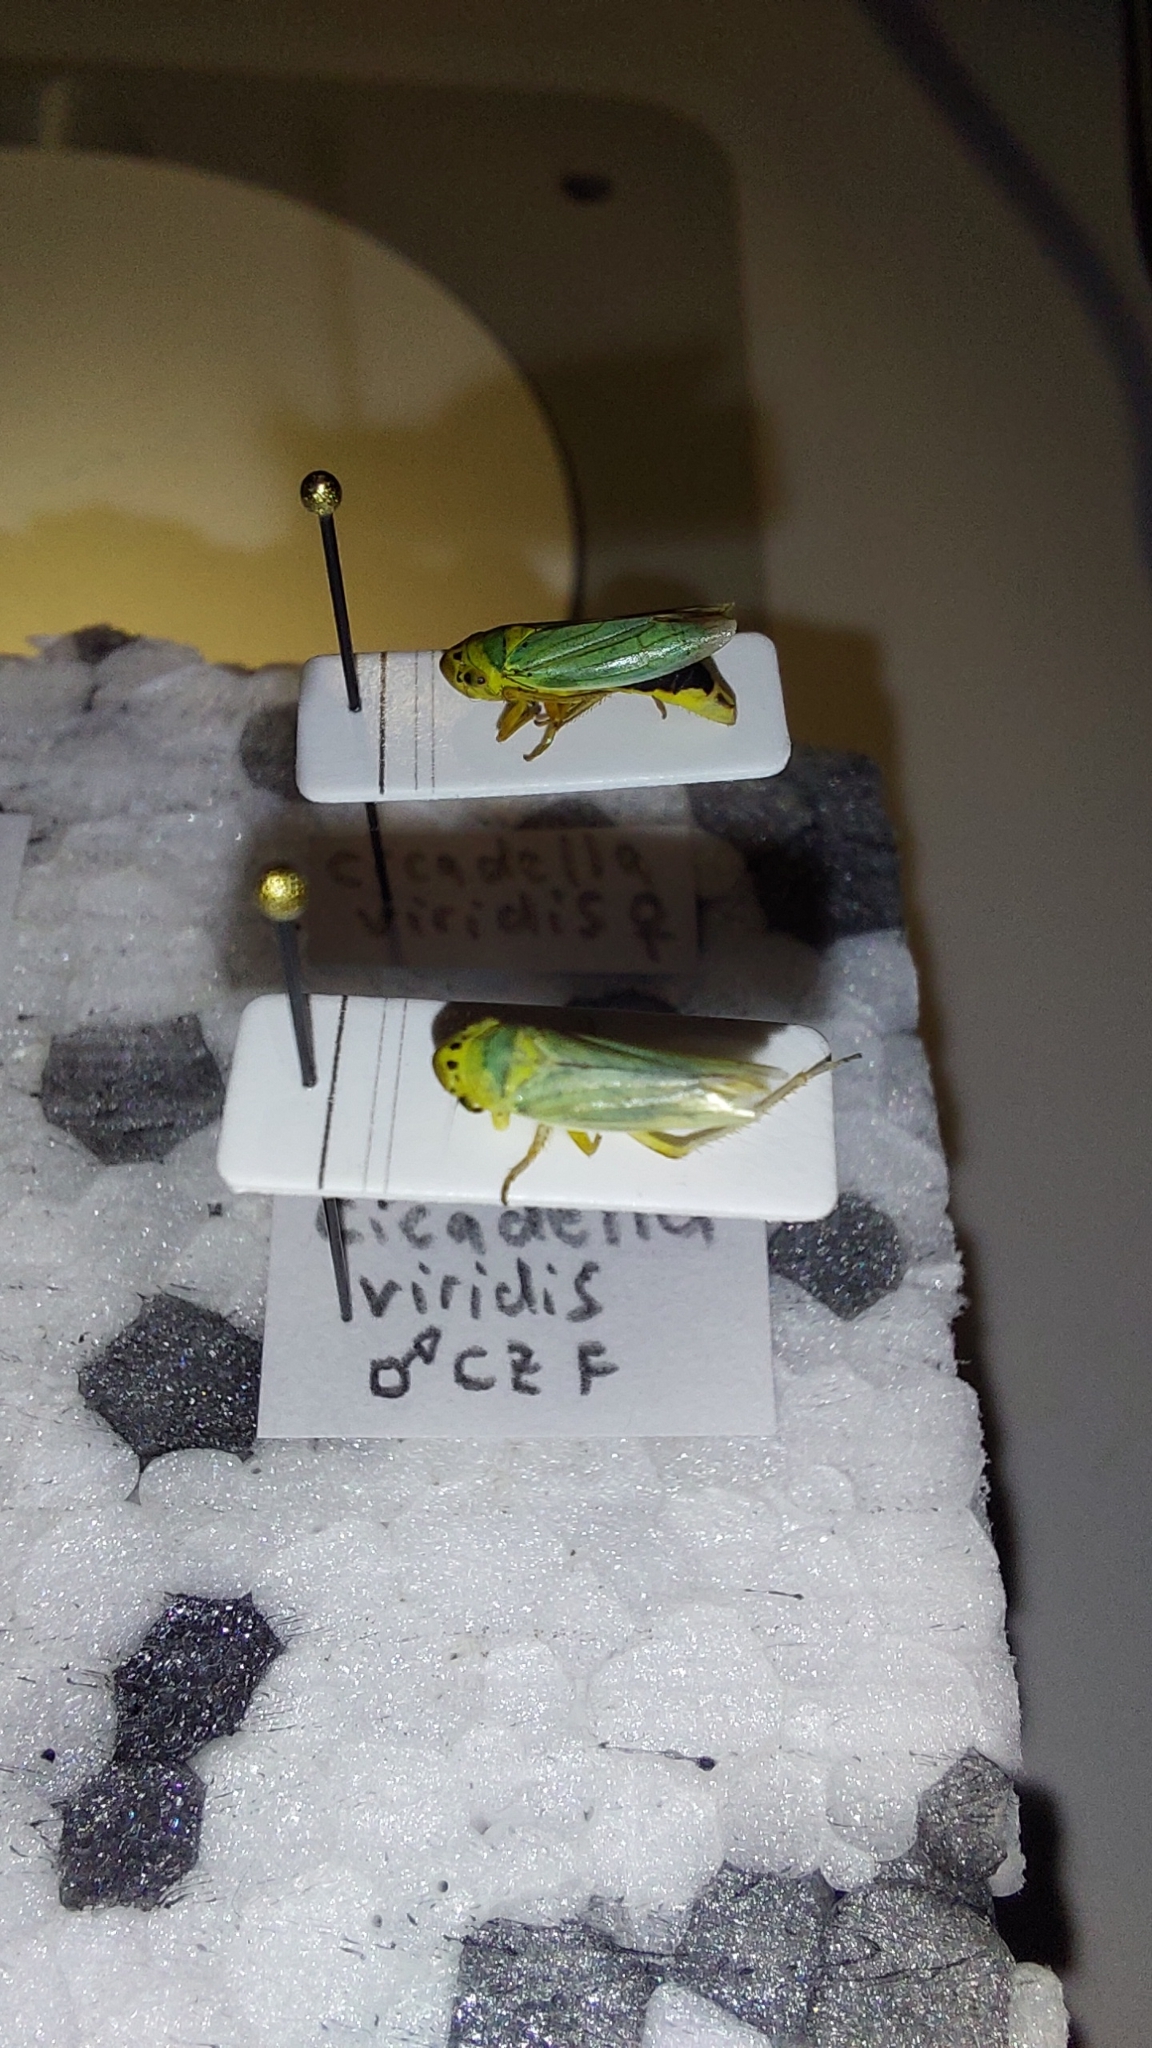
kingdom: Animalia
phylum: Arthropoda
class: Insecta
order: Hemiptera
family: Cicadellidae
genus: Cicadella
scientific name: Cicadella viridis
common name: Leafhopper
